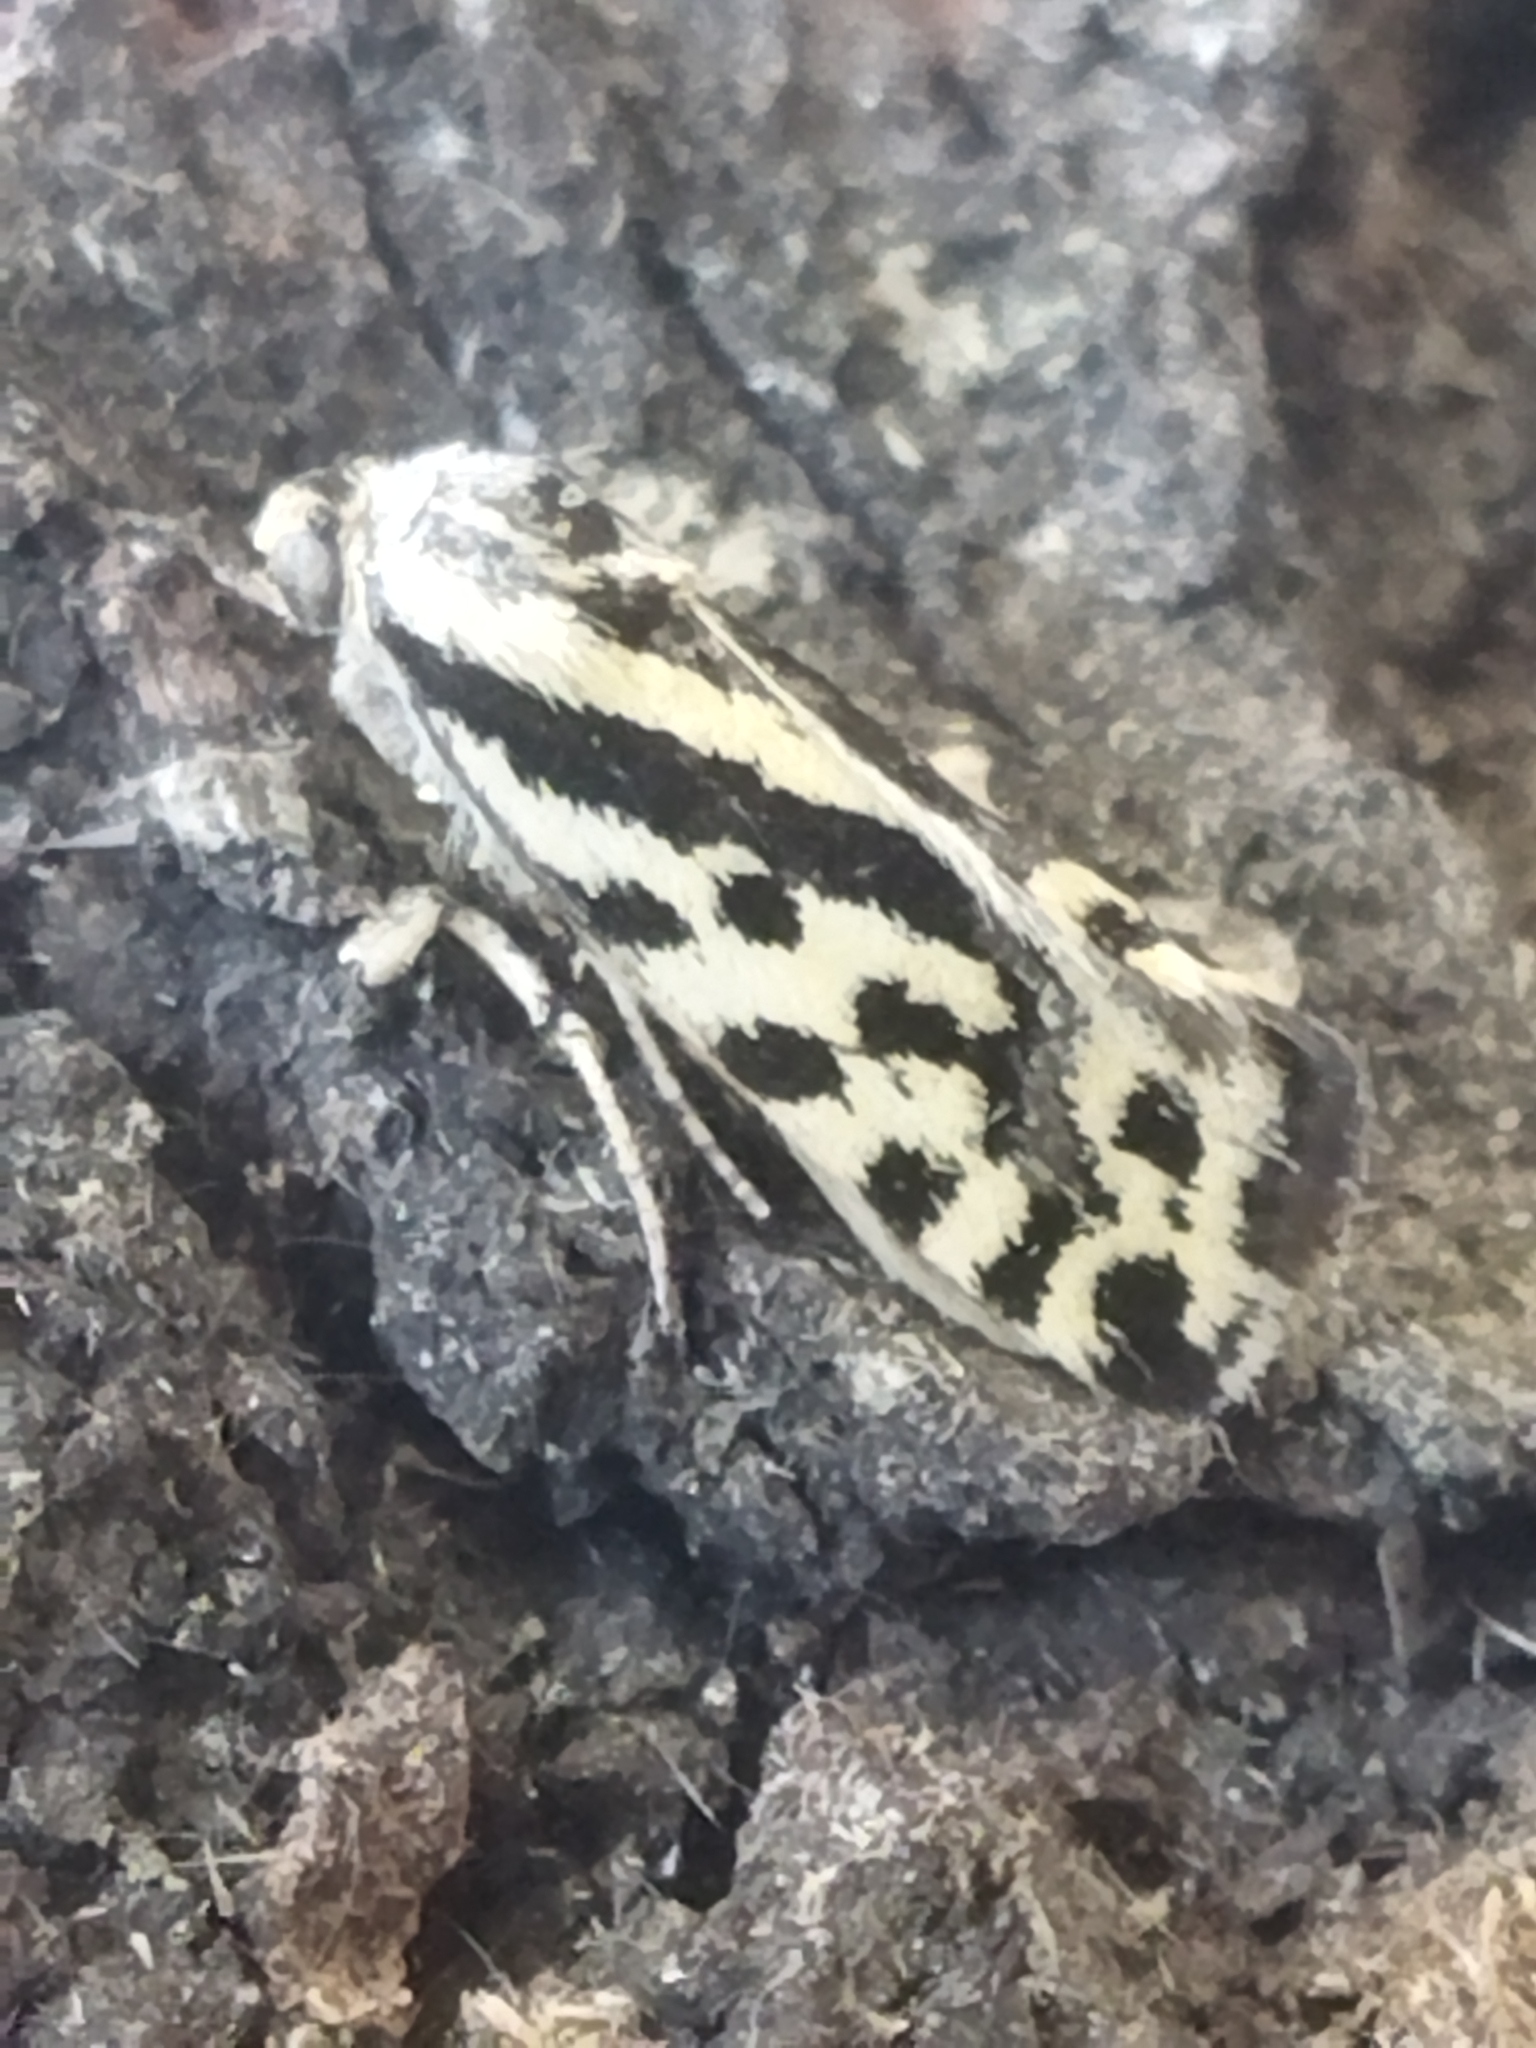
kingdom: Animalia
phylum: Arthropoda
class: Insecta
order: Lepidoptera
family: Noctuidae
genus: Acontia
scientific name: Acontia trabealis
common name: Spotted sulphur
